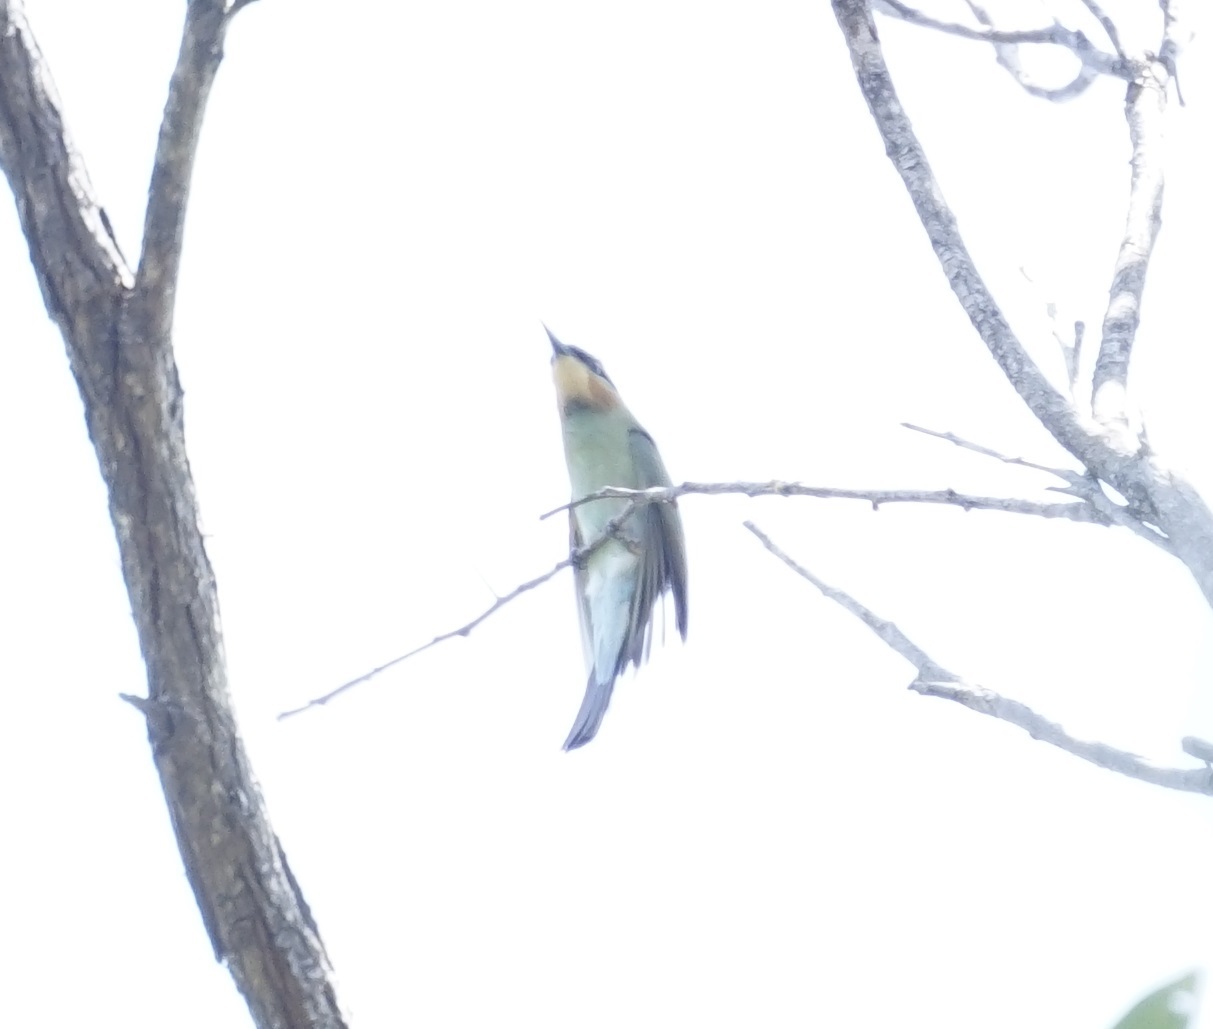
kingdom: Animalia
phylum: Chordata
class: Aves
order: Coraciiformes
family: Meropidae
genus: Merops
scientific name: Merops ornatus
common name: Rainbow bee-eater
